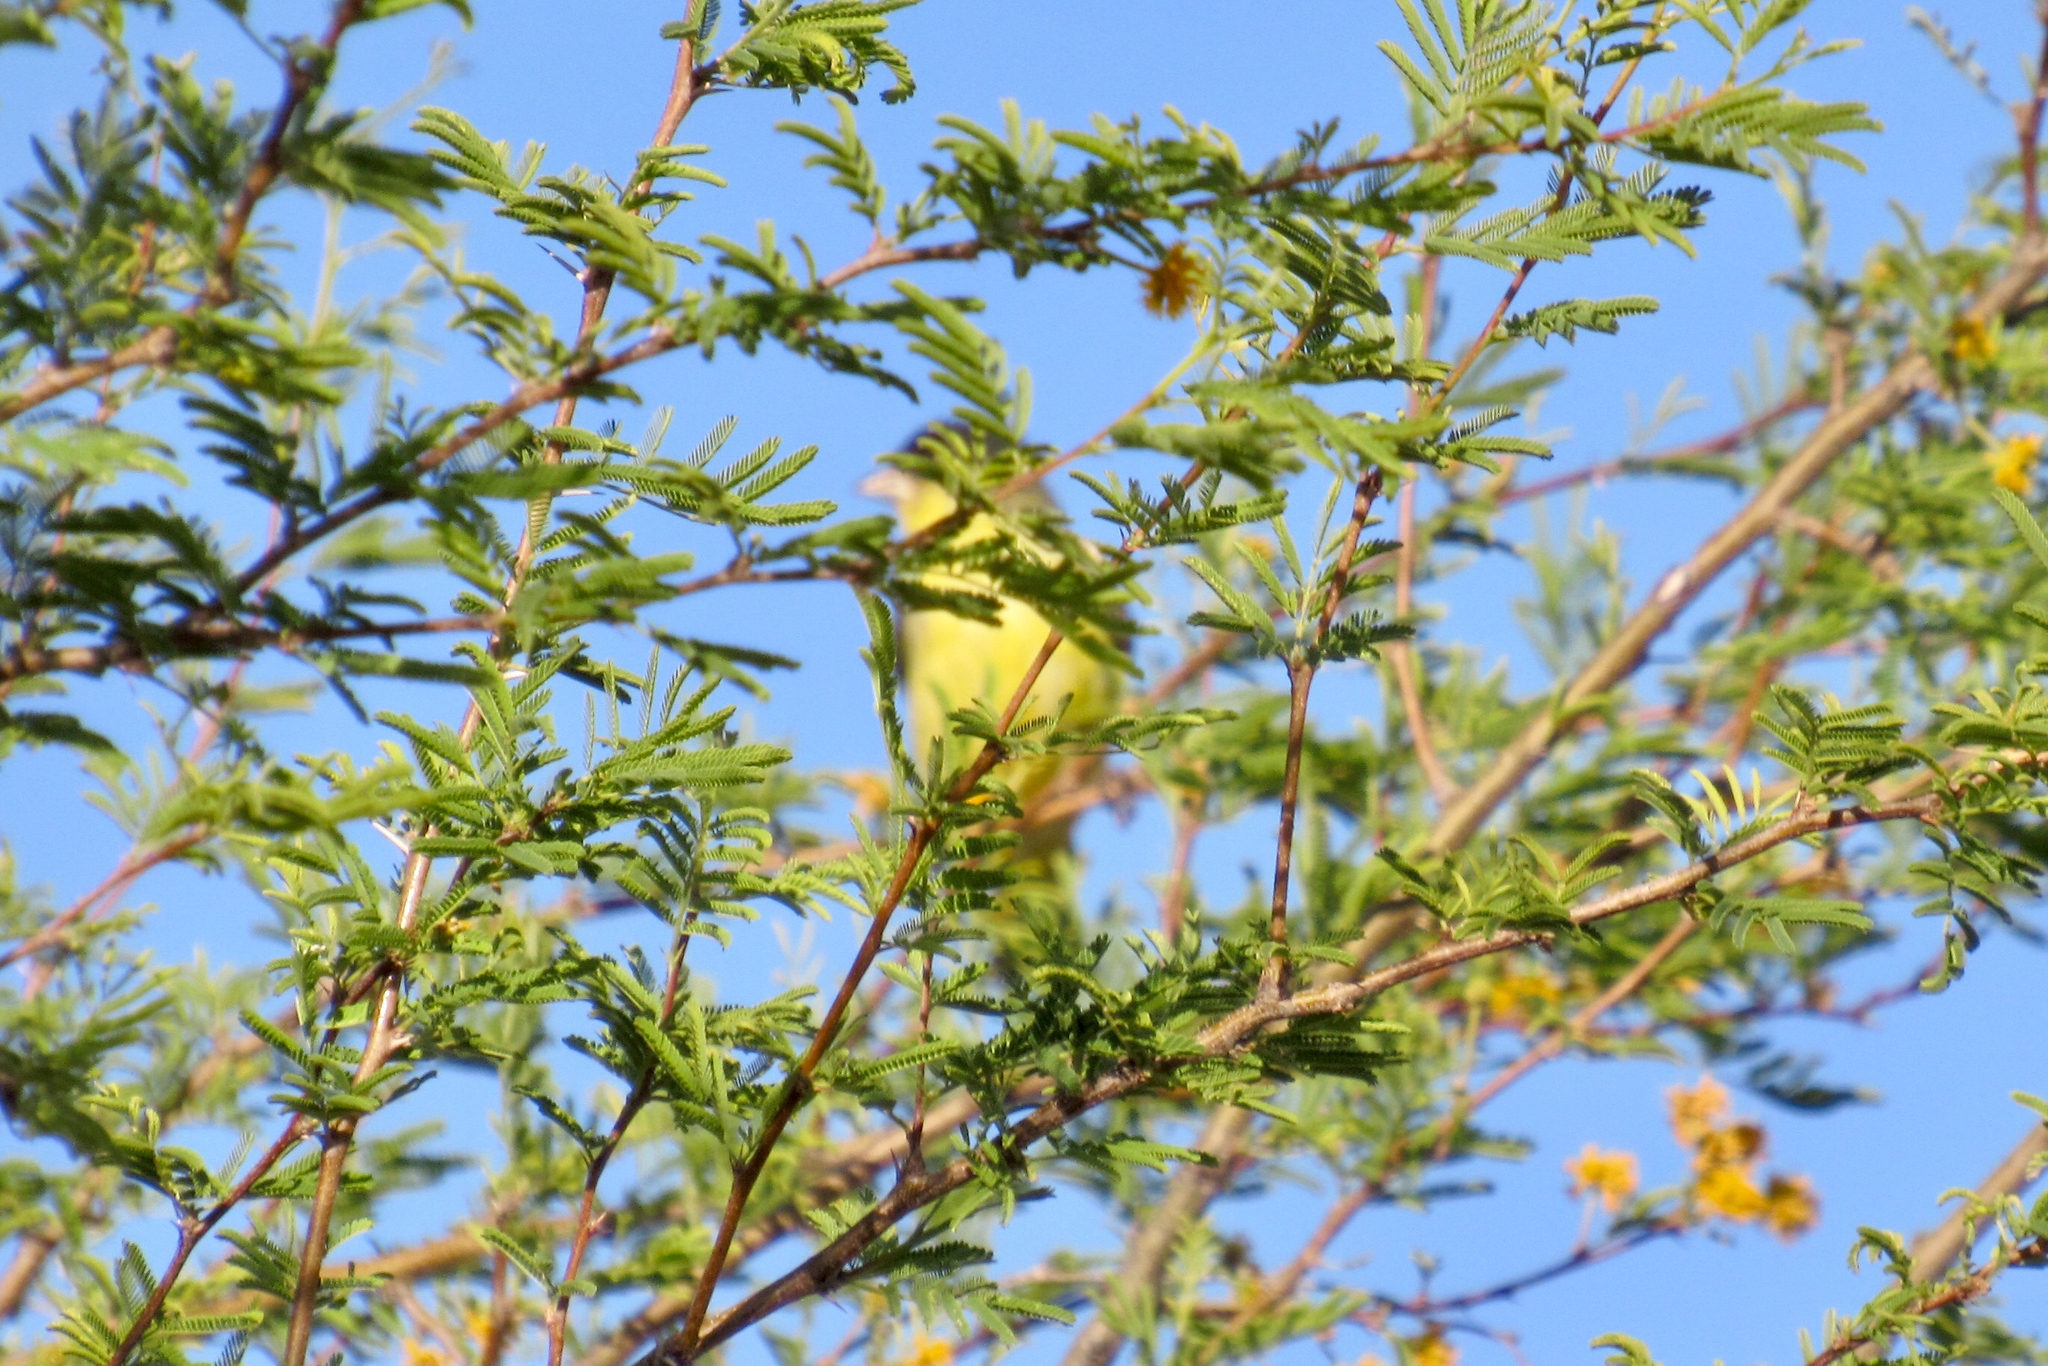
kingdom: Animalia
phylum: Chordata
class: Aves
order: Passeriformes
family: Fringillidae
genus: Spinus
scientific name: Spinus psaltria
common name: Lesser goldfinch
